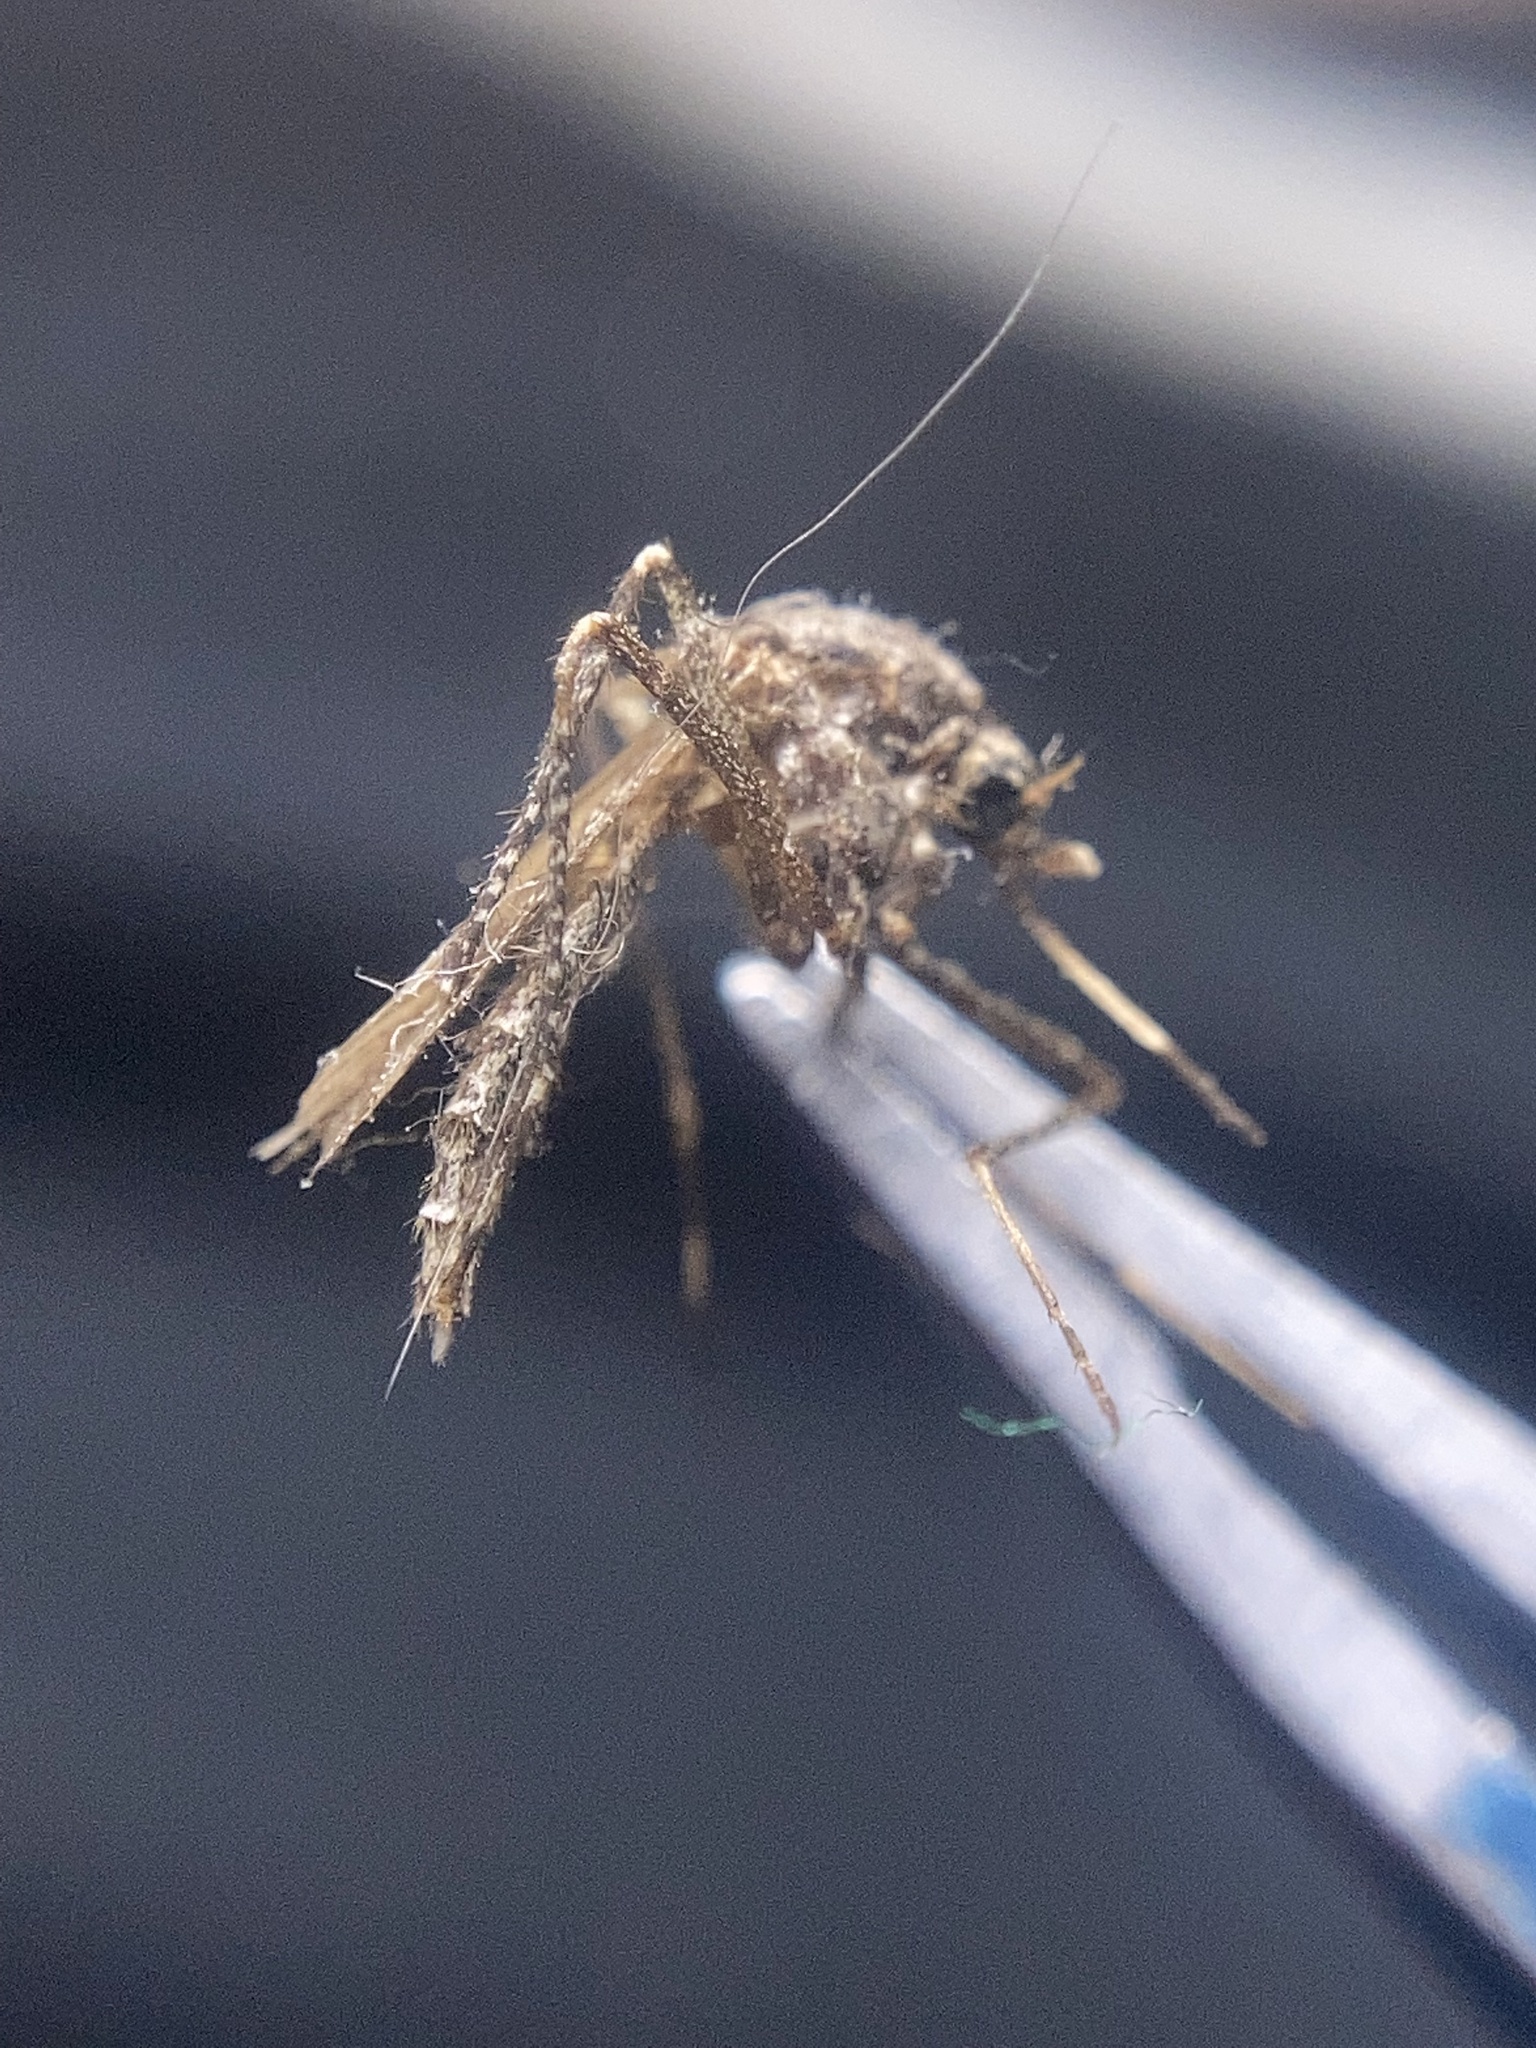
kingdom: Animalia
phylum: Arthropoda
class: Insecta
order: Diptera
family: Culicidae
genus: Psorophora
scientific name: Psorophora columbiae
